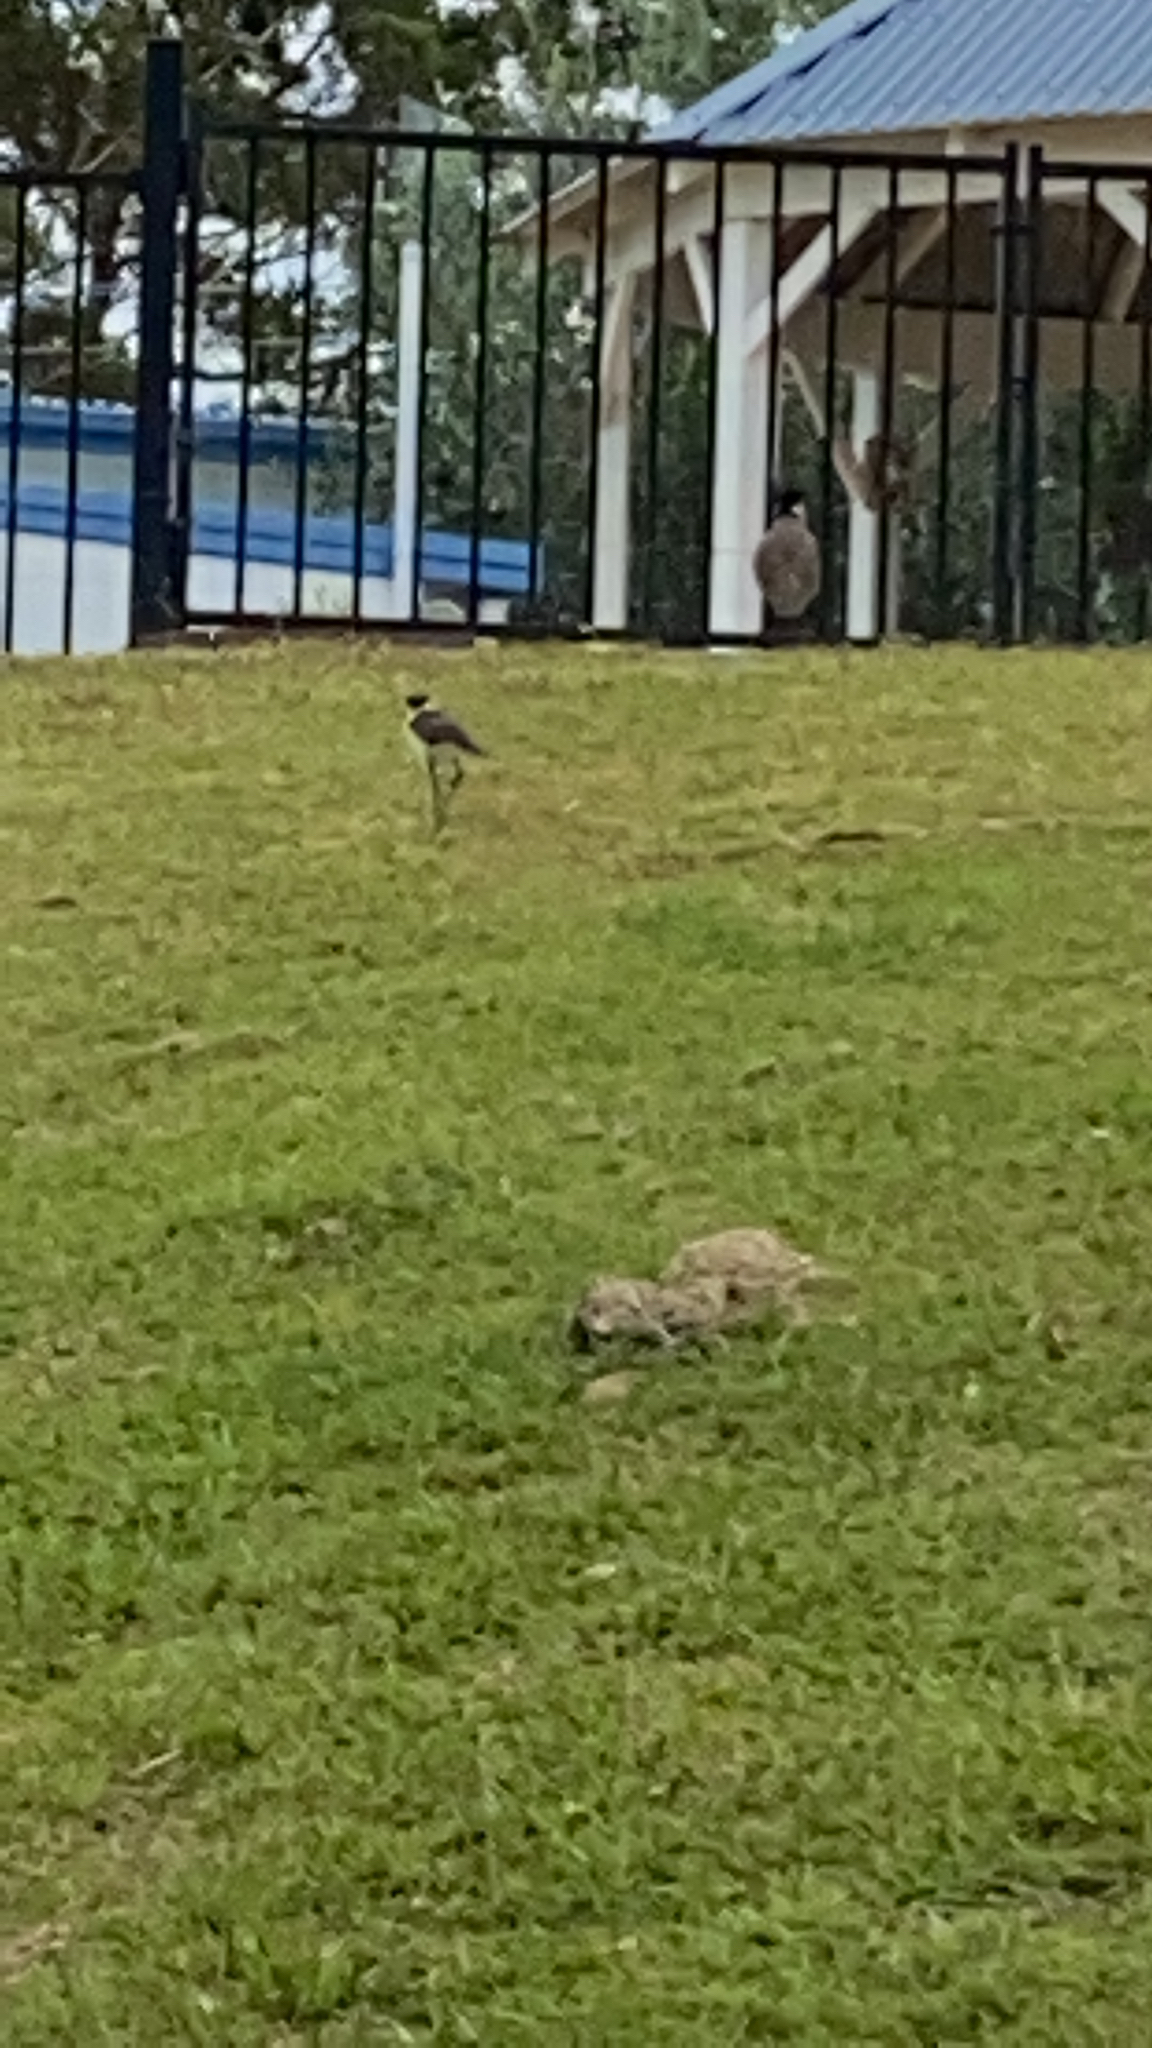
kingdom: Animalia
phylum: Chordata
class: Aves
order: Charadriiformes
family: Charadriidae
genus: Vanellus
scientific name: Vanellus miles
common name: Masked lapwing
